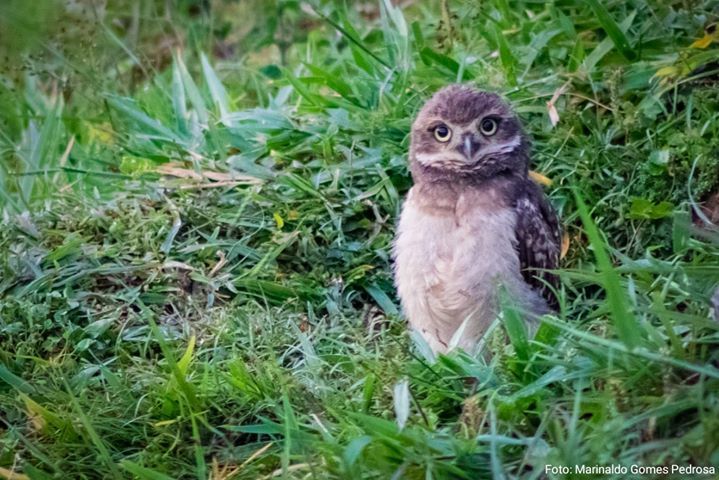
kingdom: Animalia
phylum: Chordata
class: Aves
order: Strigiformes
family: Strigidae
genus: Athene
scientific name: Athene cunicularia
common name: Burrowing owl
